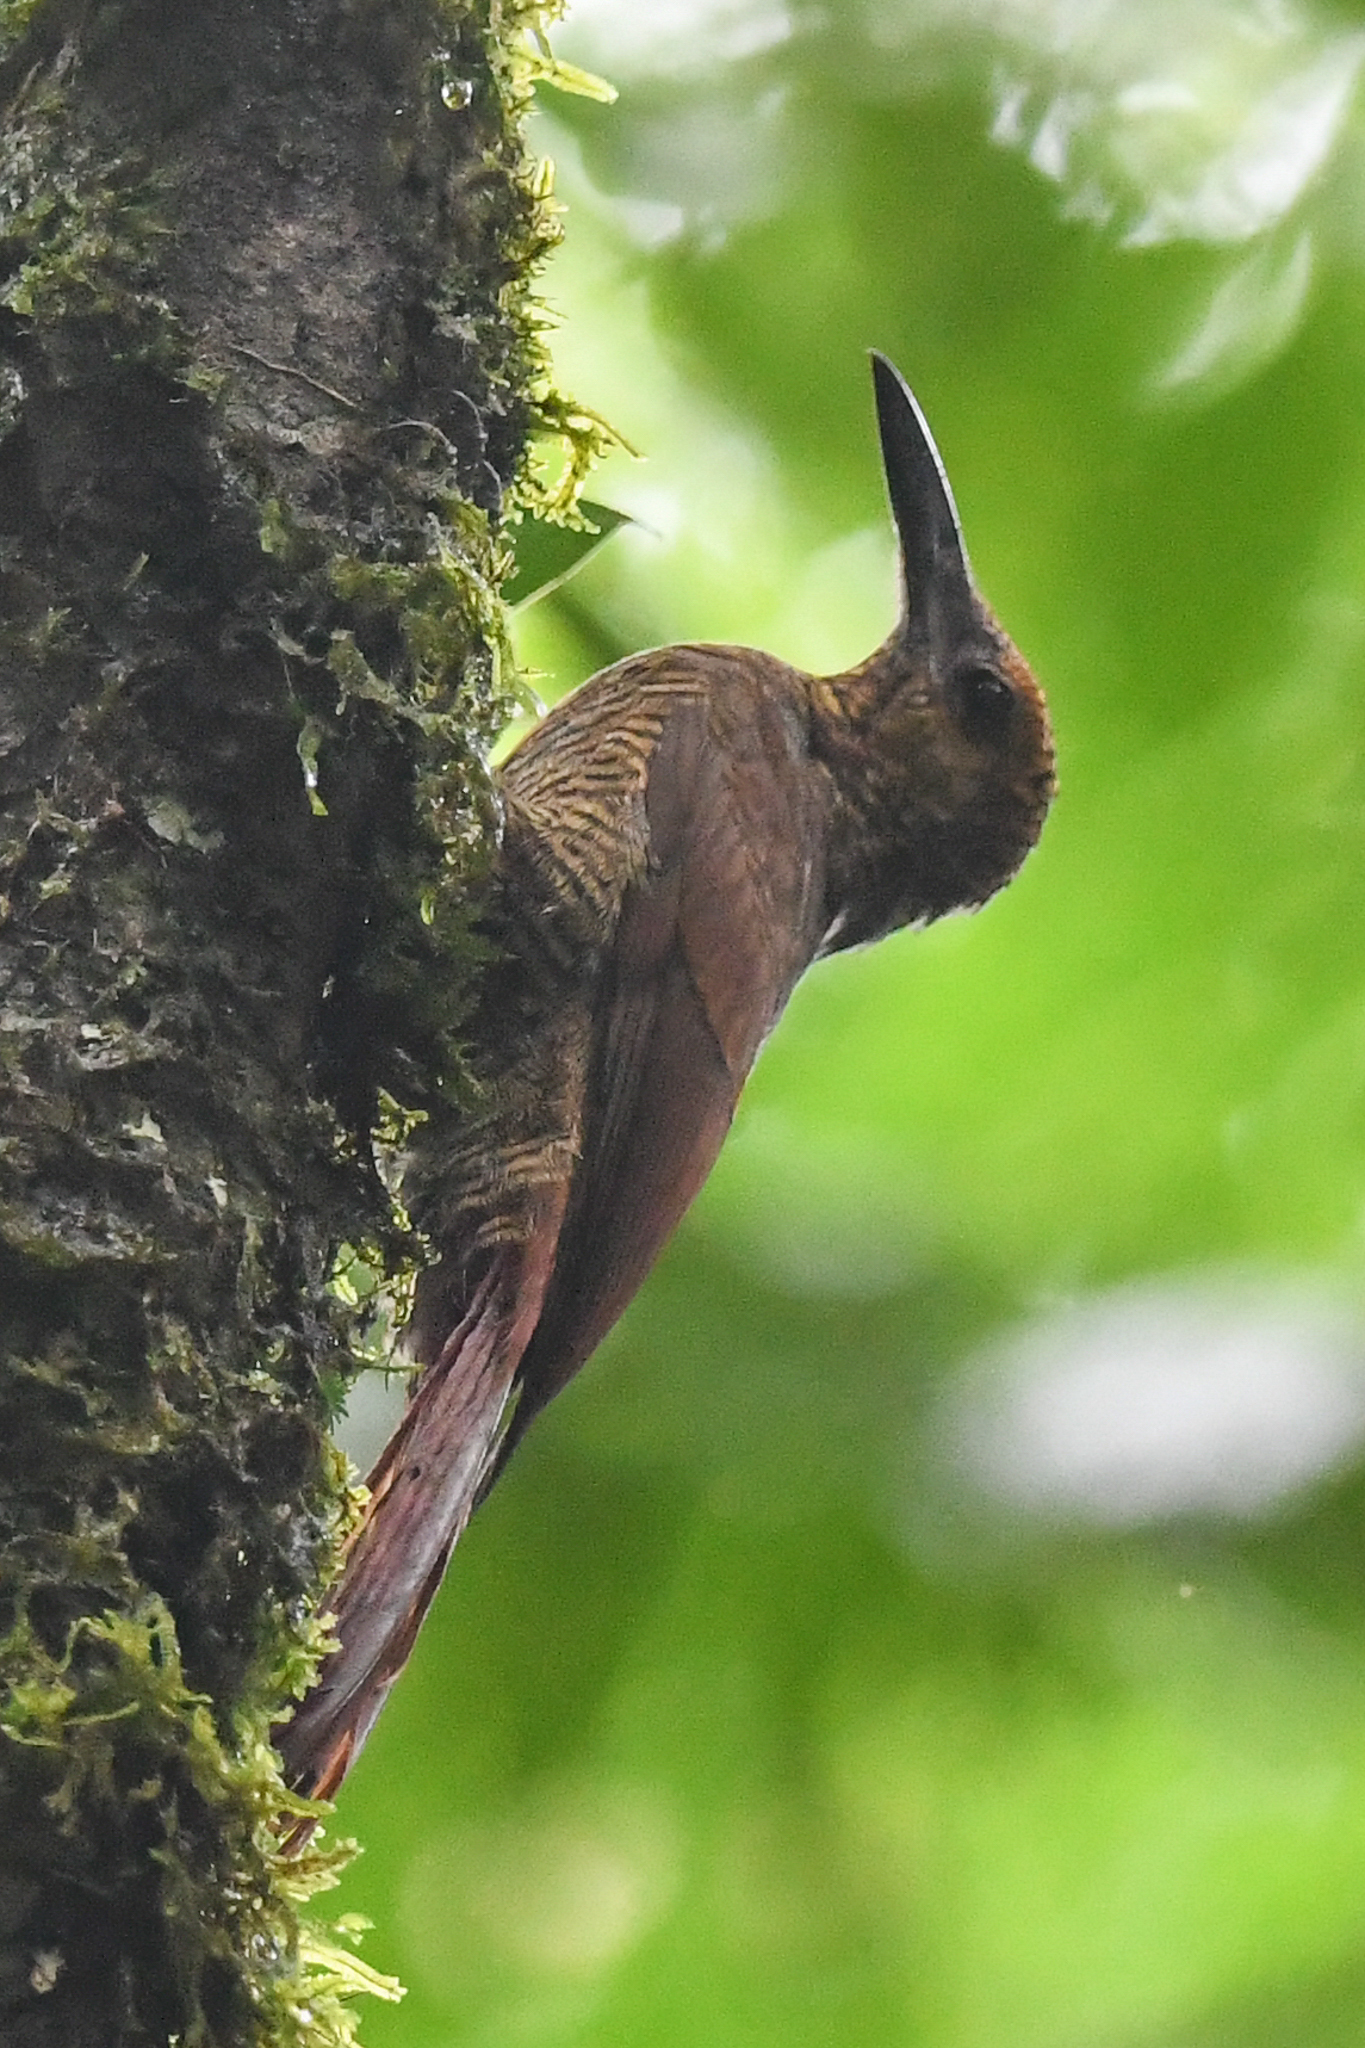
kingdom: Animalia
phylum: Chordata
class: Aves
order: Passeriformes
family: Furnariidae
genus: Dendrocolaptes
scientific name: Dendrocolaptes sanctithomae
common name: Northern barred-woodcreeper
